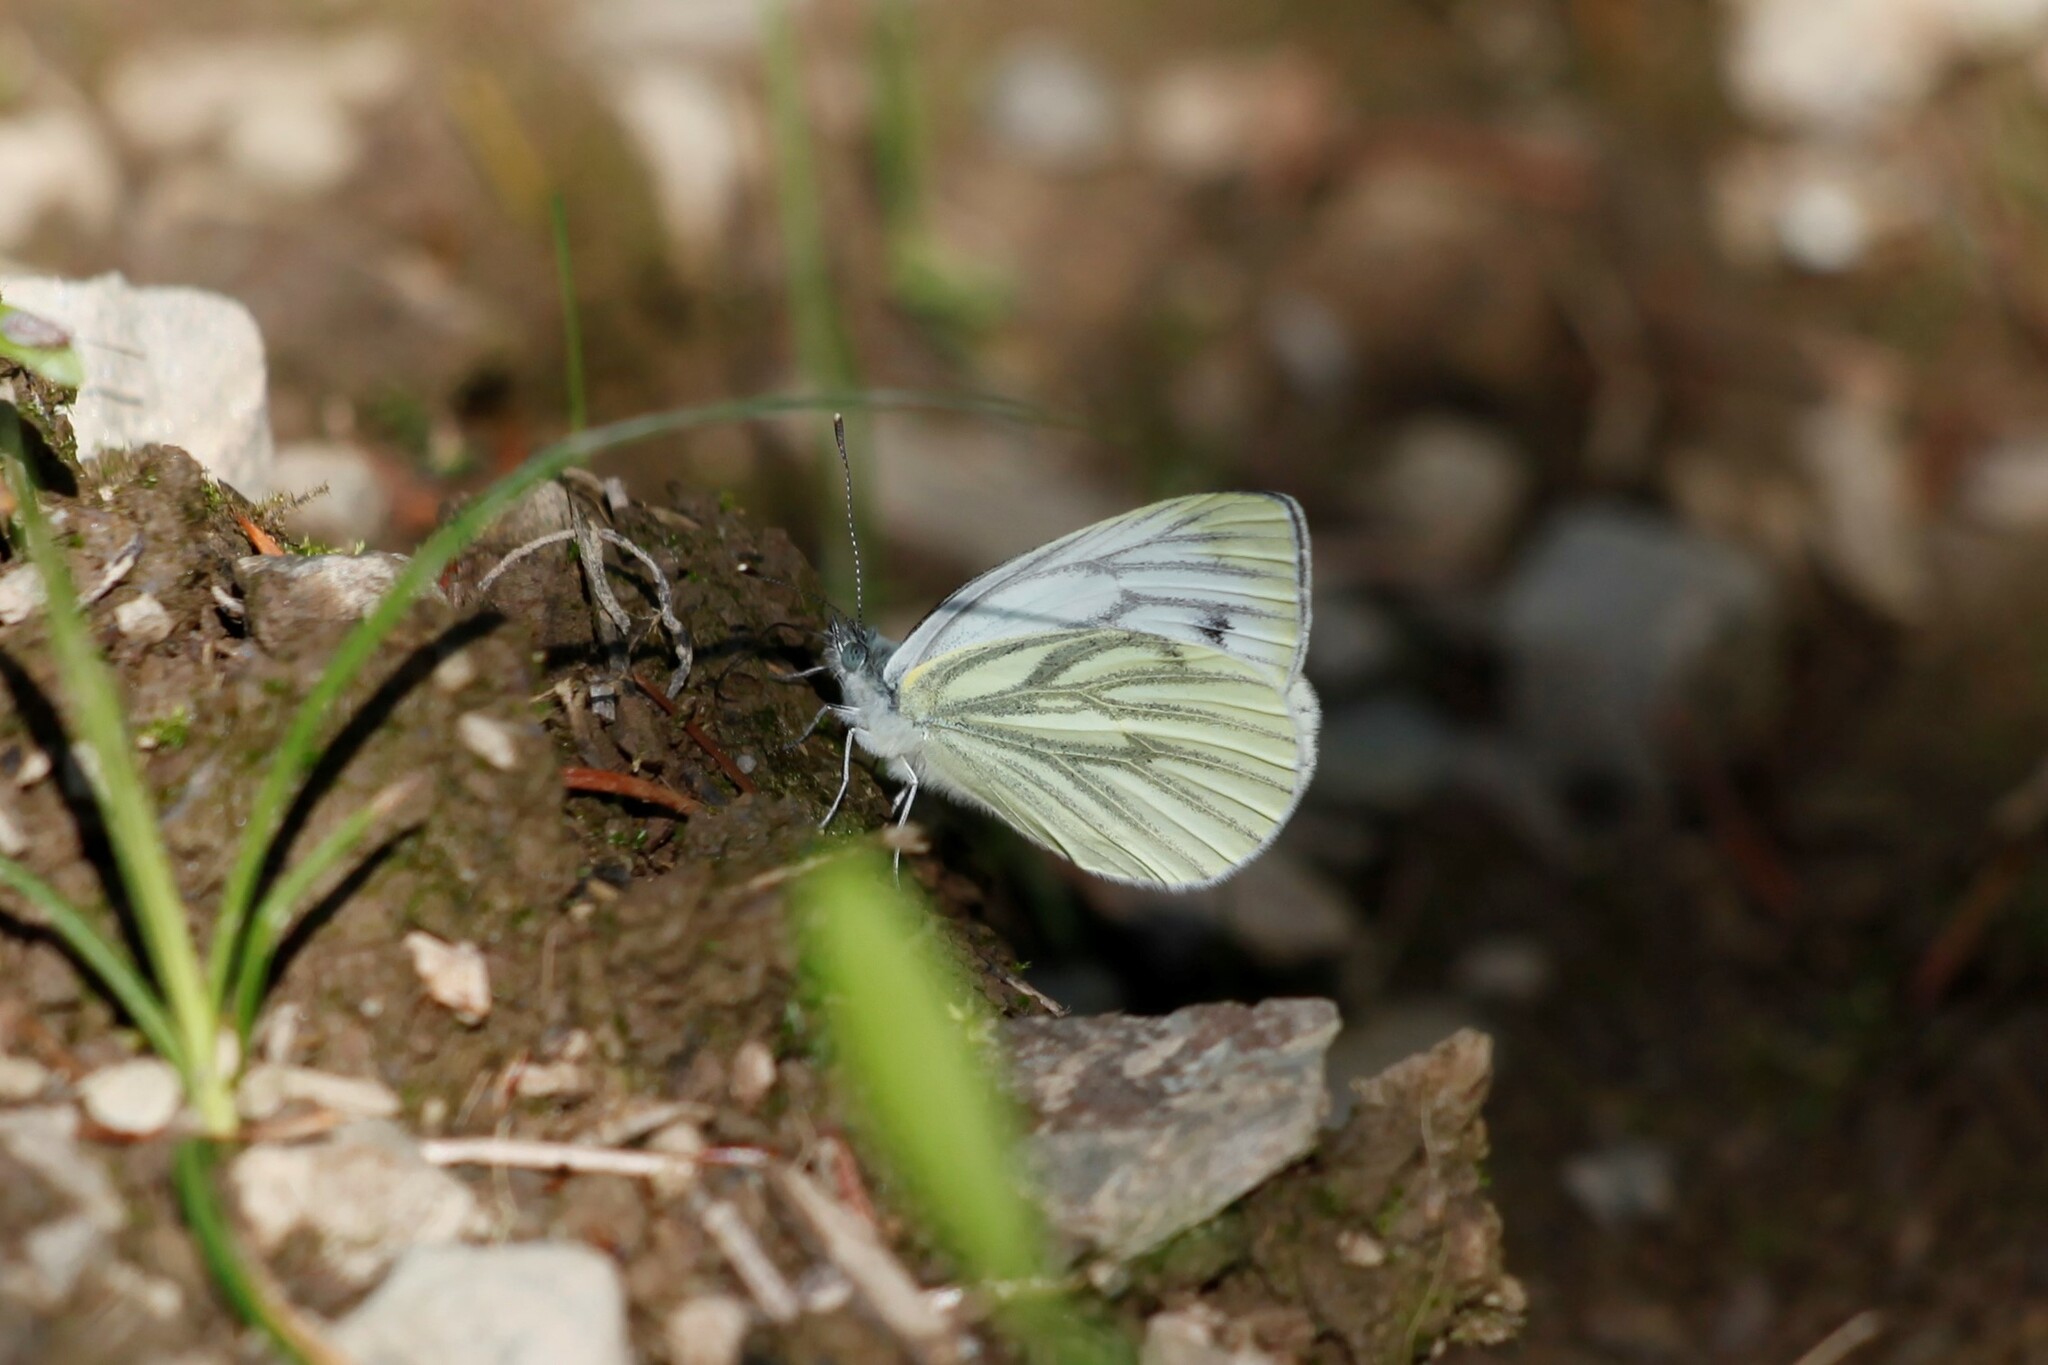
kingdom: Animalia
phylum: Arthropoda
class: Insecta
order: Lepidoptera
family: Pieridae
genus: Pieris
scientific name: Pieris napi
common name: Green-veined white
